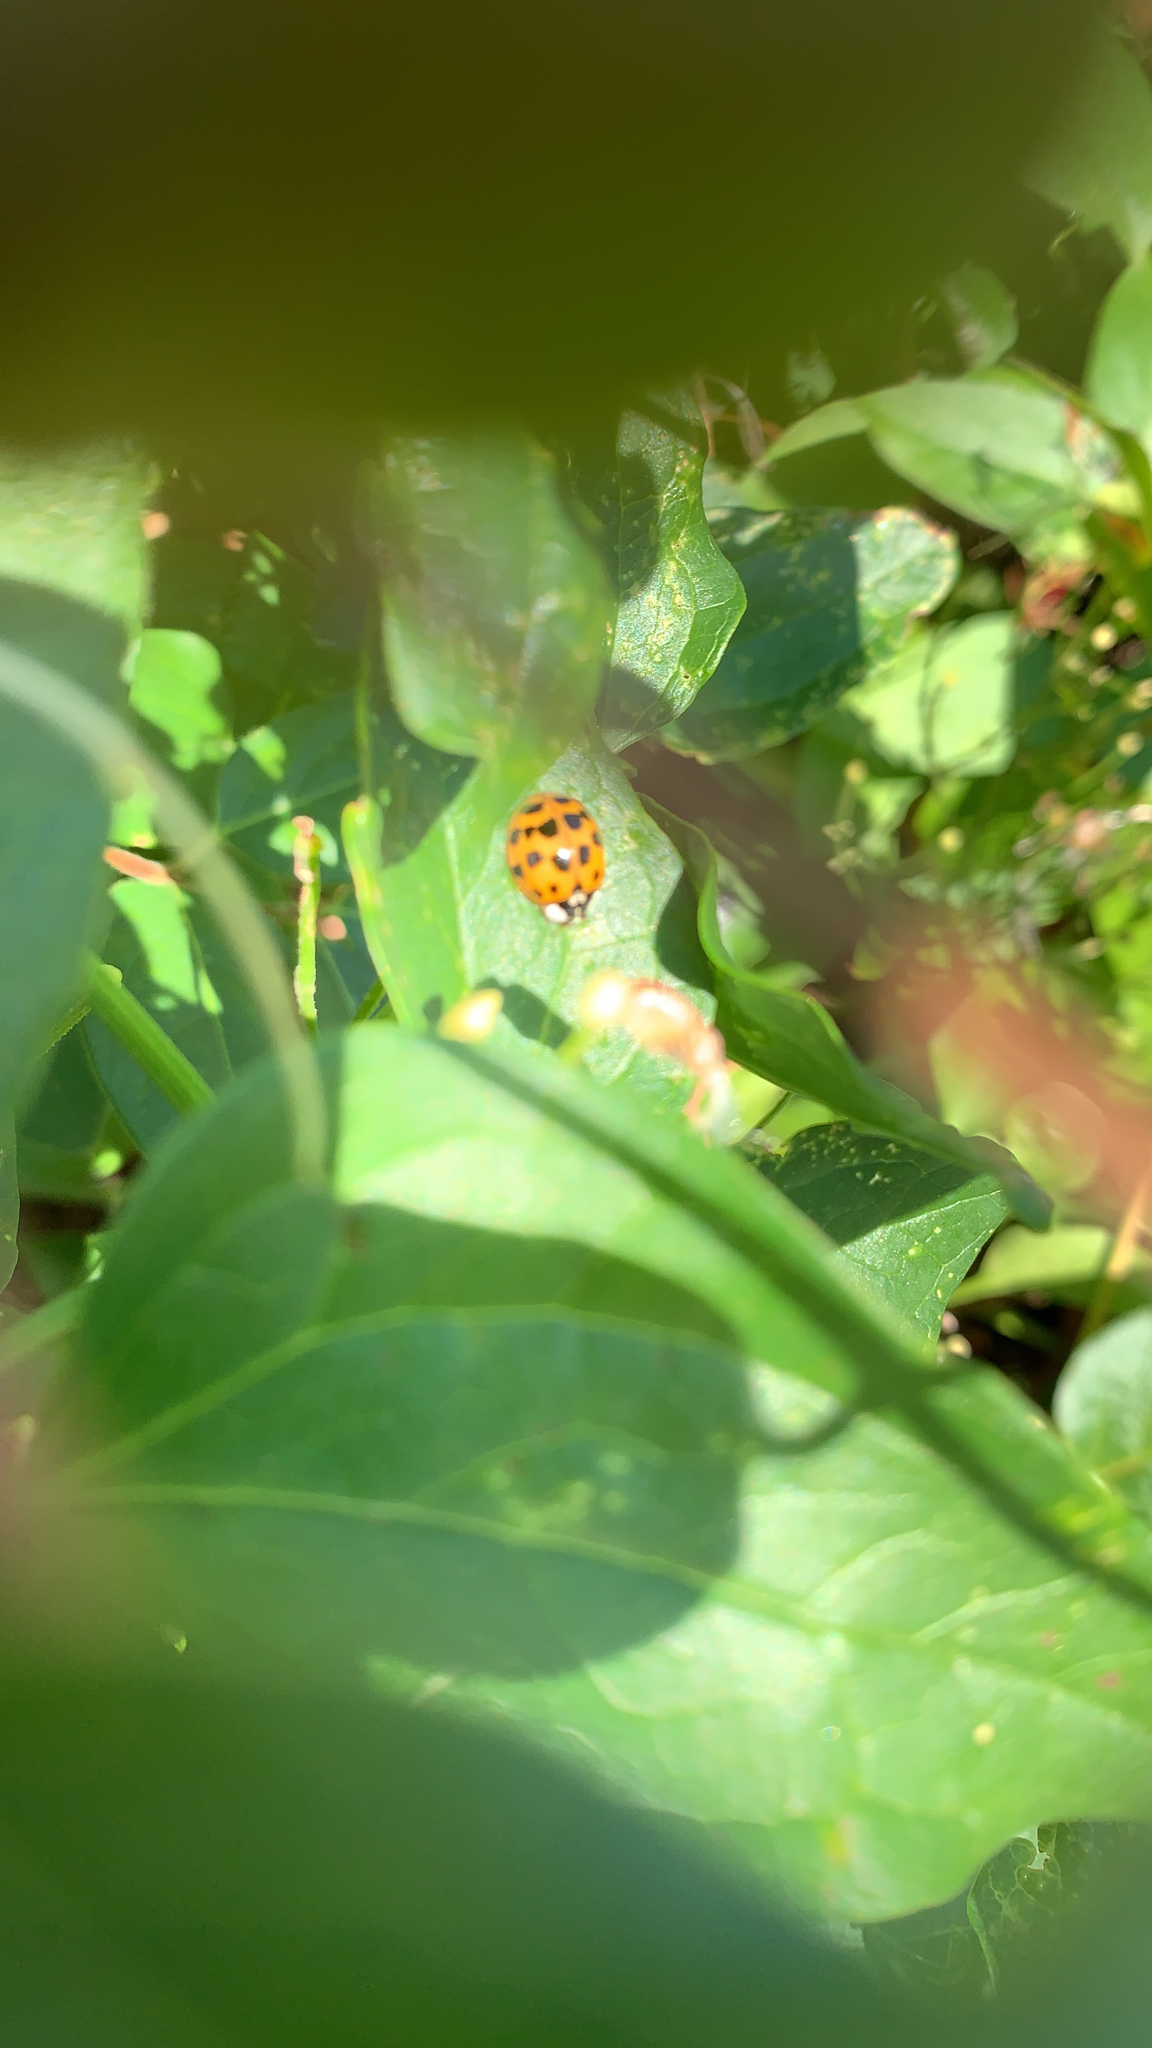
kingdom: Animalia
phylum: Arthropoda
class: Insecta
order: Coleoptera
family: Coccinellidae
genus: Harmonia
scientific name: Harmonia axyridis
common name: Harlequin ladybird
